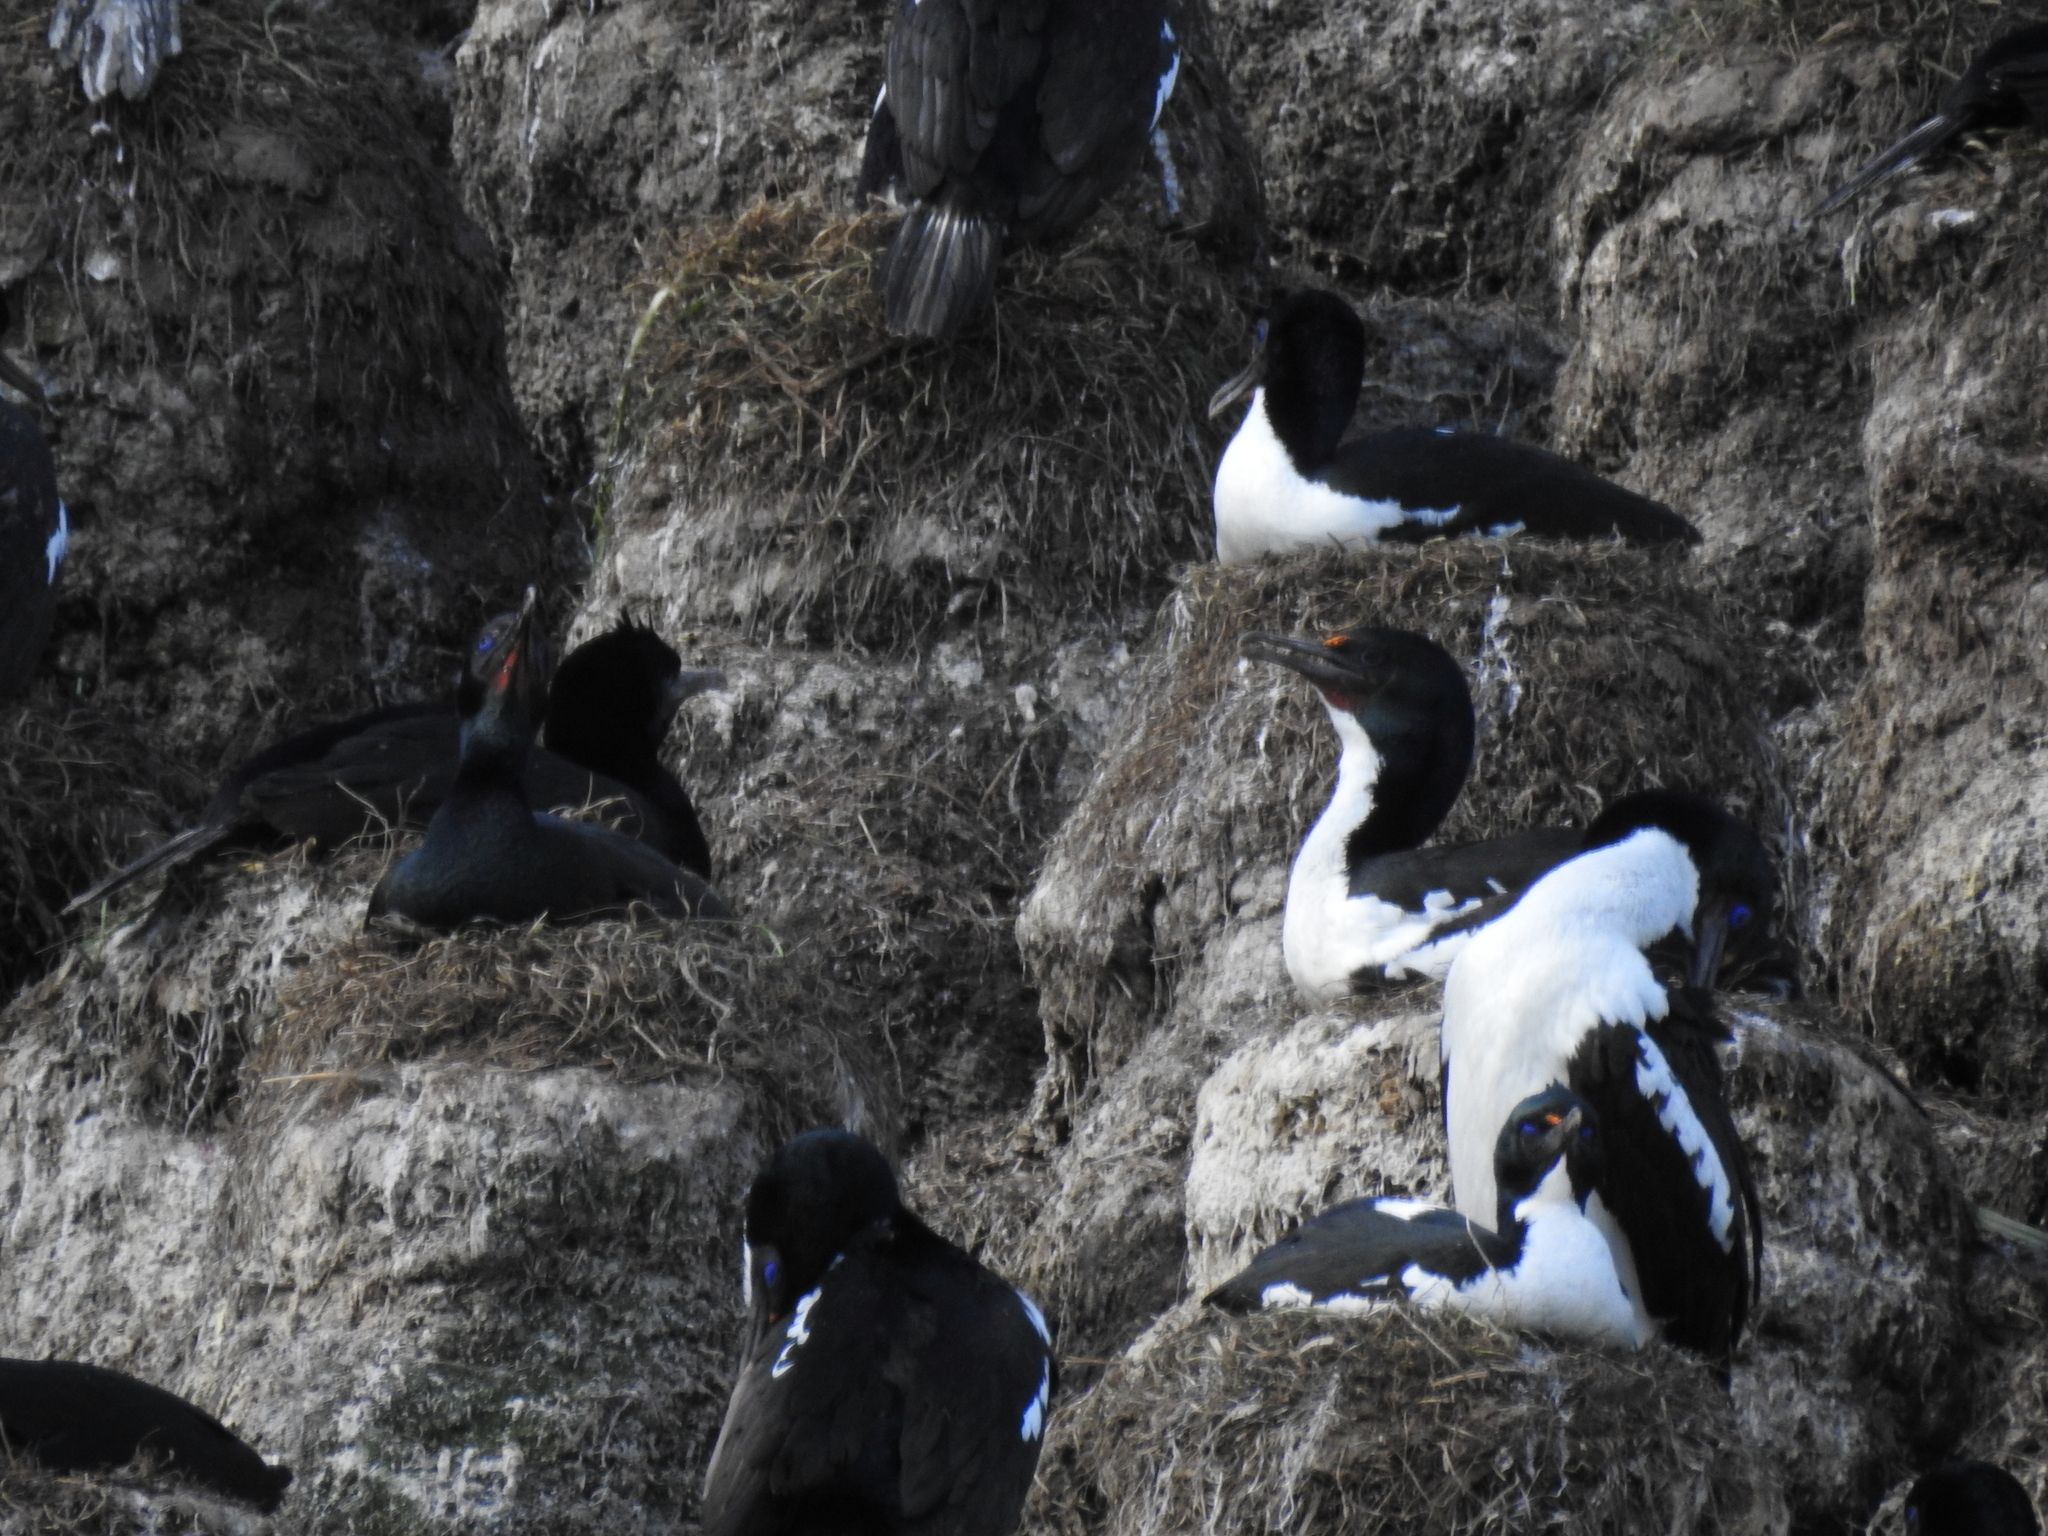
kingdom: Animalia
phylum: Chordata
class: Aves
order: Suliformes
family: Phalacrocoracidae
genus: Leucocarbo
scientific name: Leucocarbo chalconotus
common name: Stewart shag
